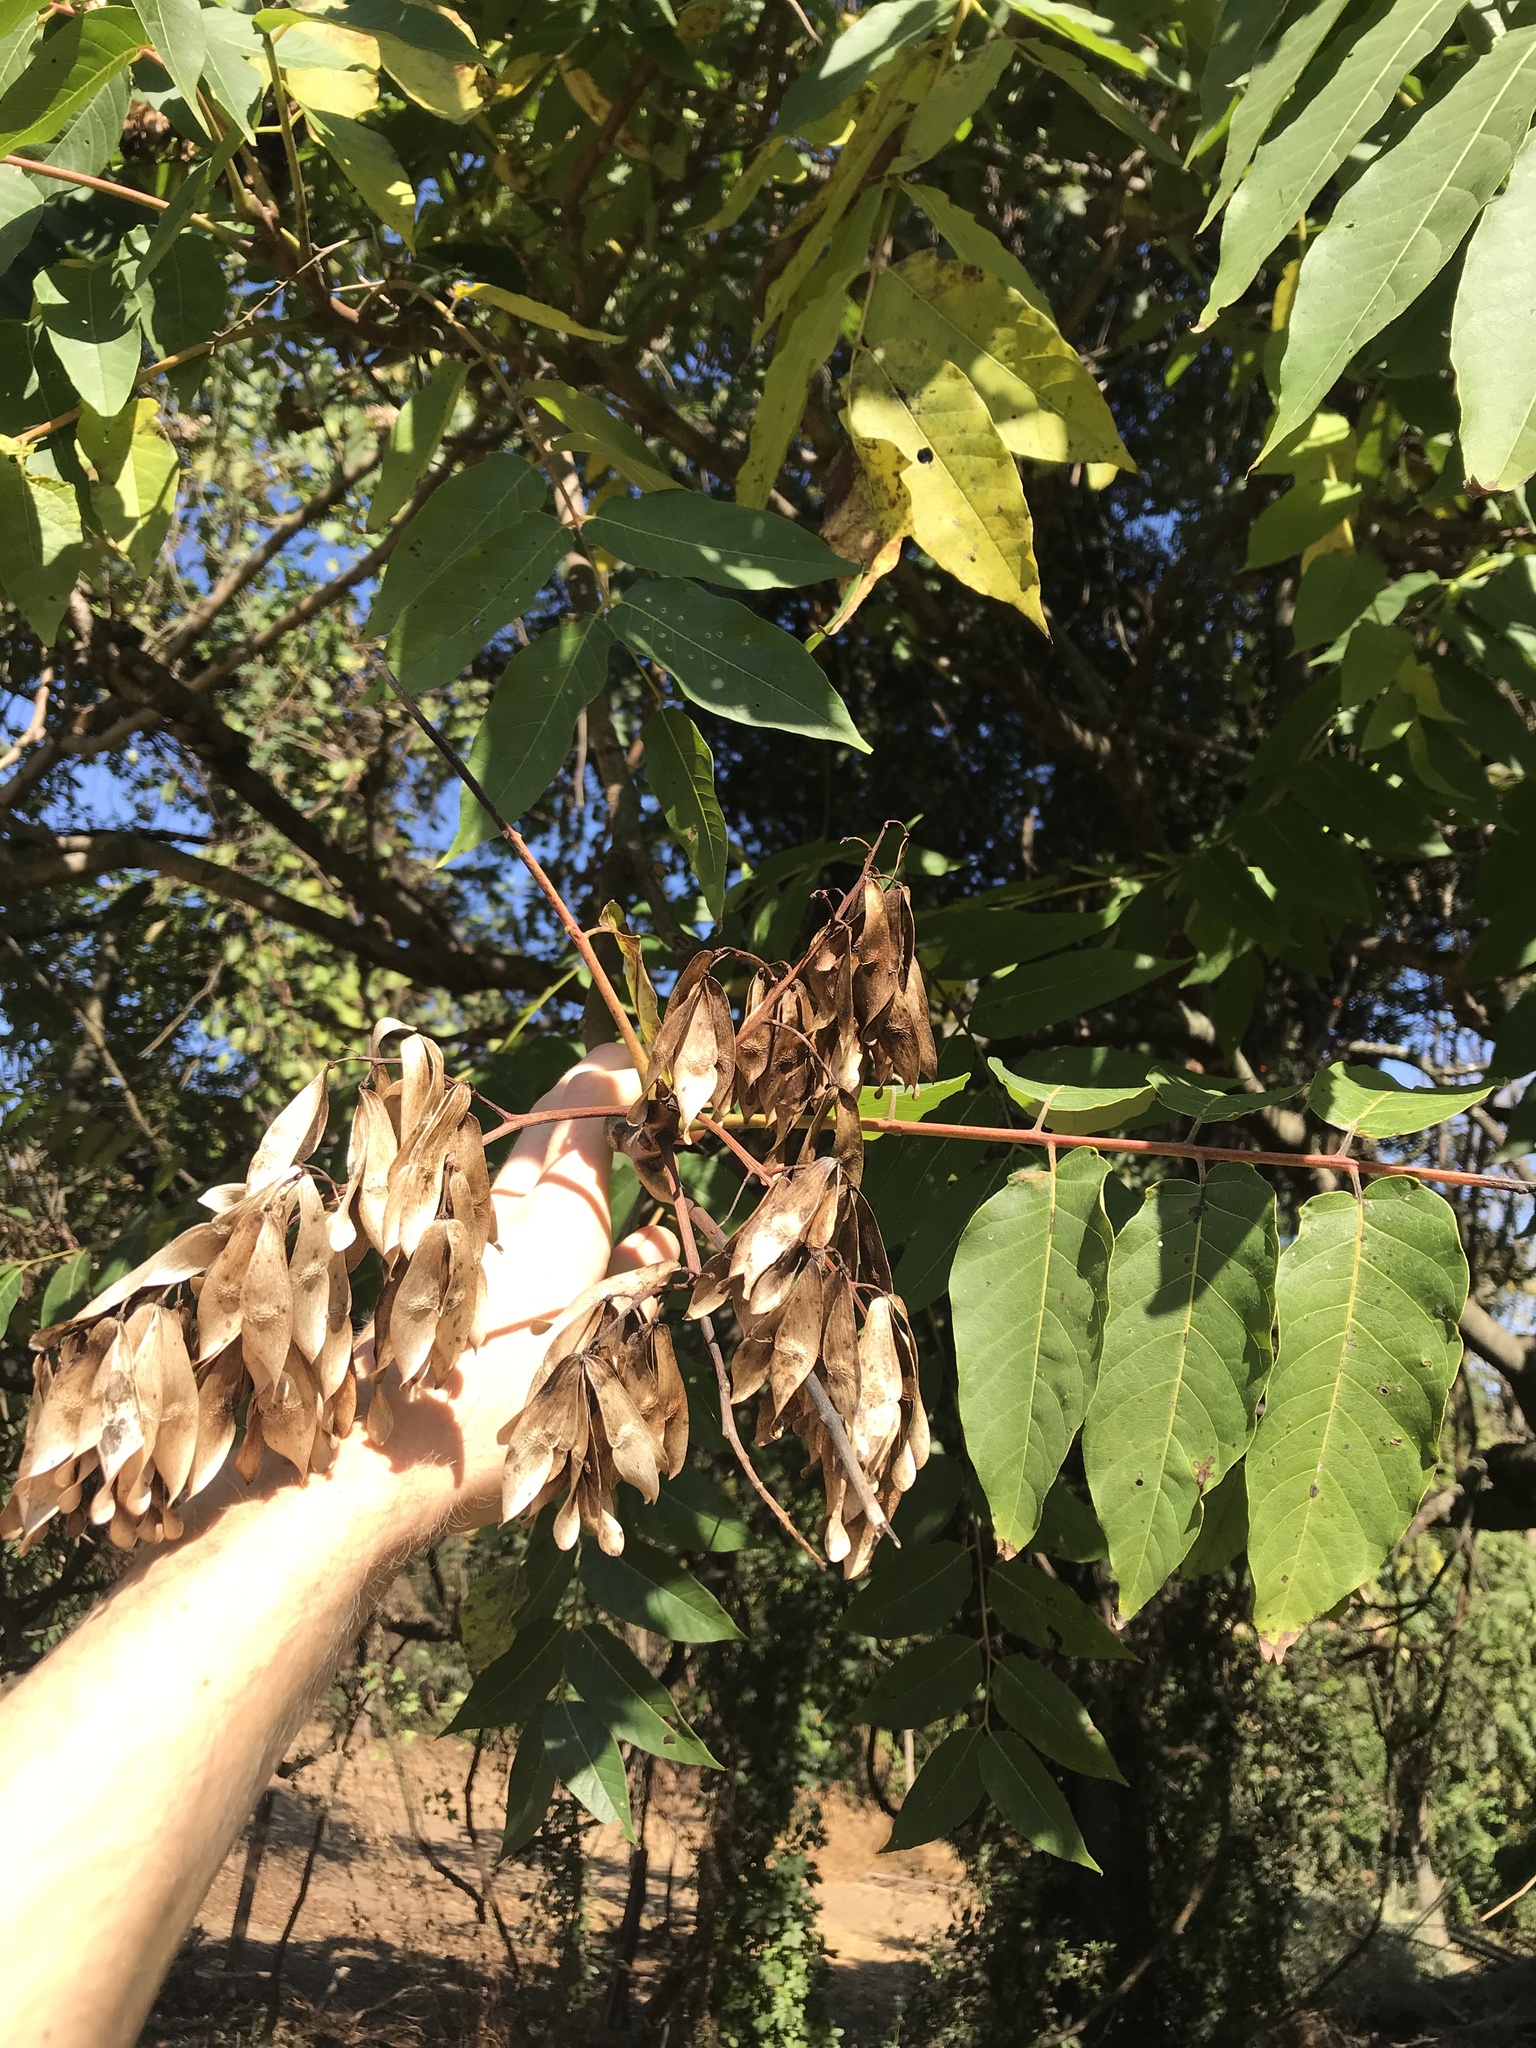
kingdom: Plantae
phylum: Tracheophyta
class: Magnoliopsida
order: Sapindales
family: Simaroubaceae
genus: Ailanthus
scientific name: Ailanthus altissima
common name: Tree-of-heaven
